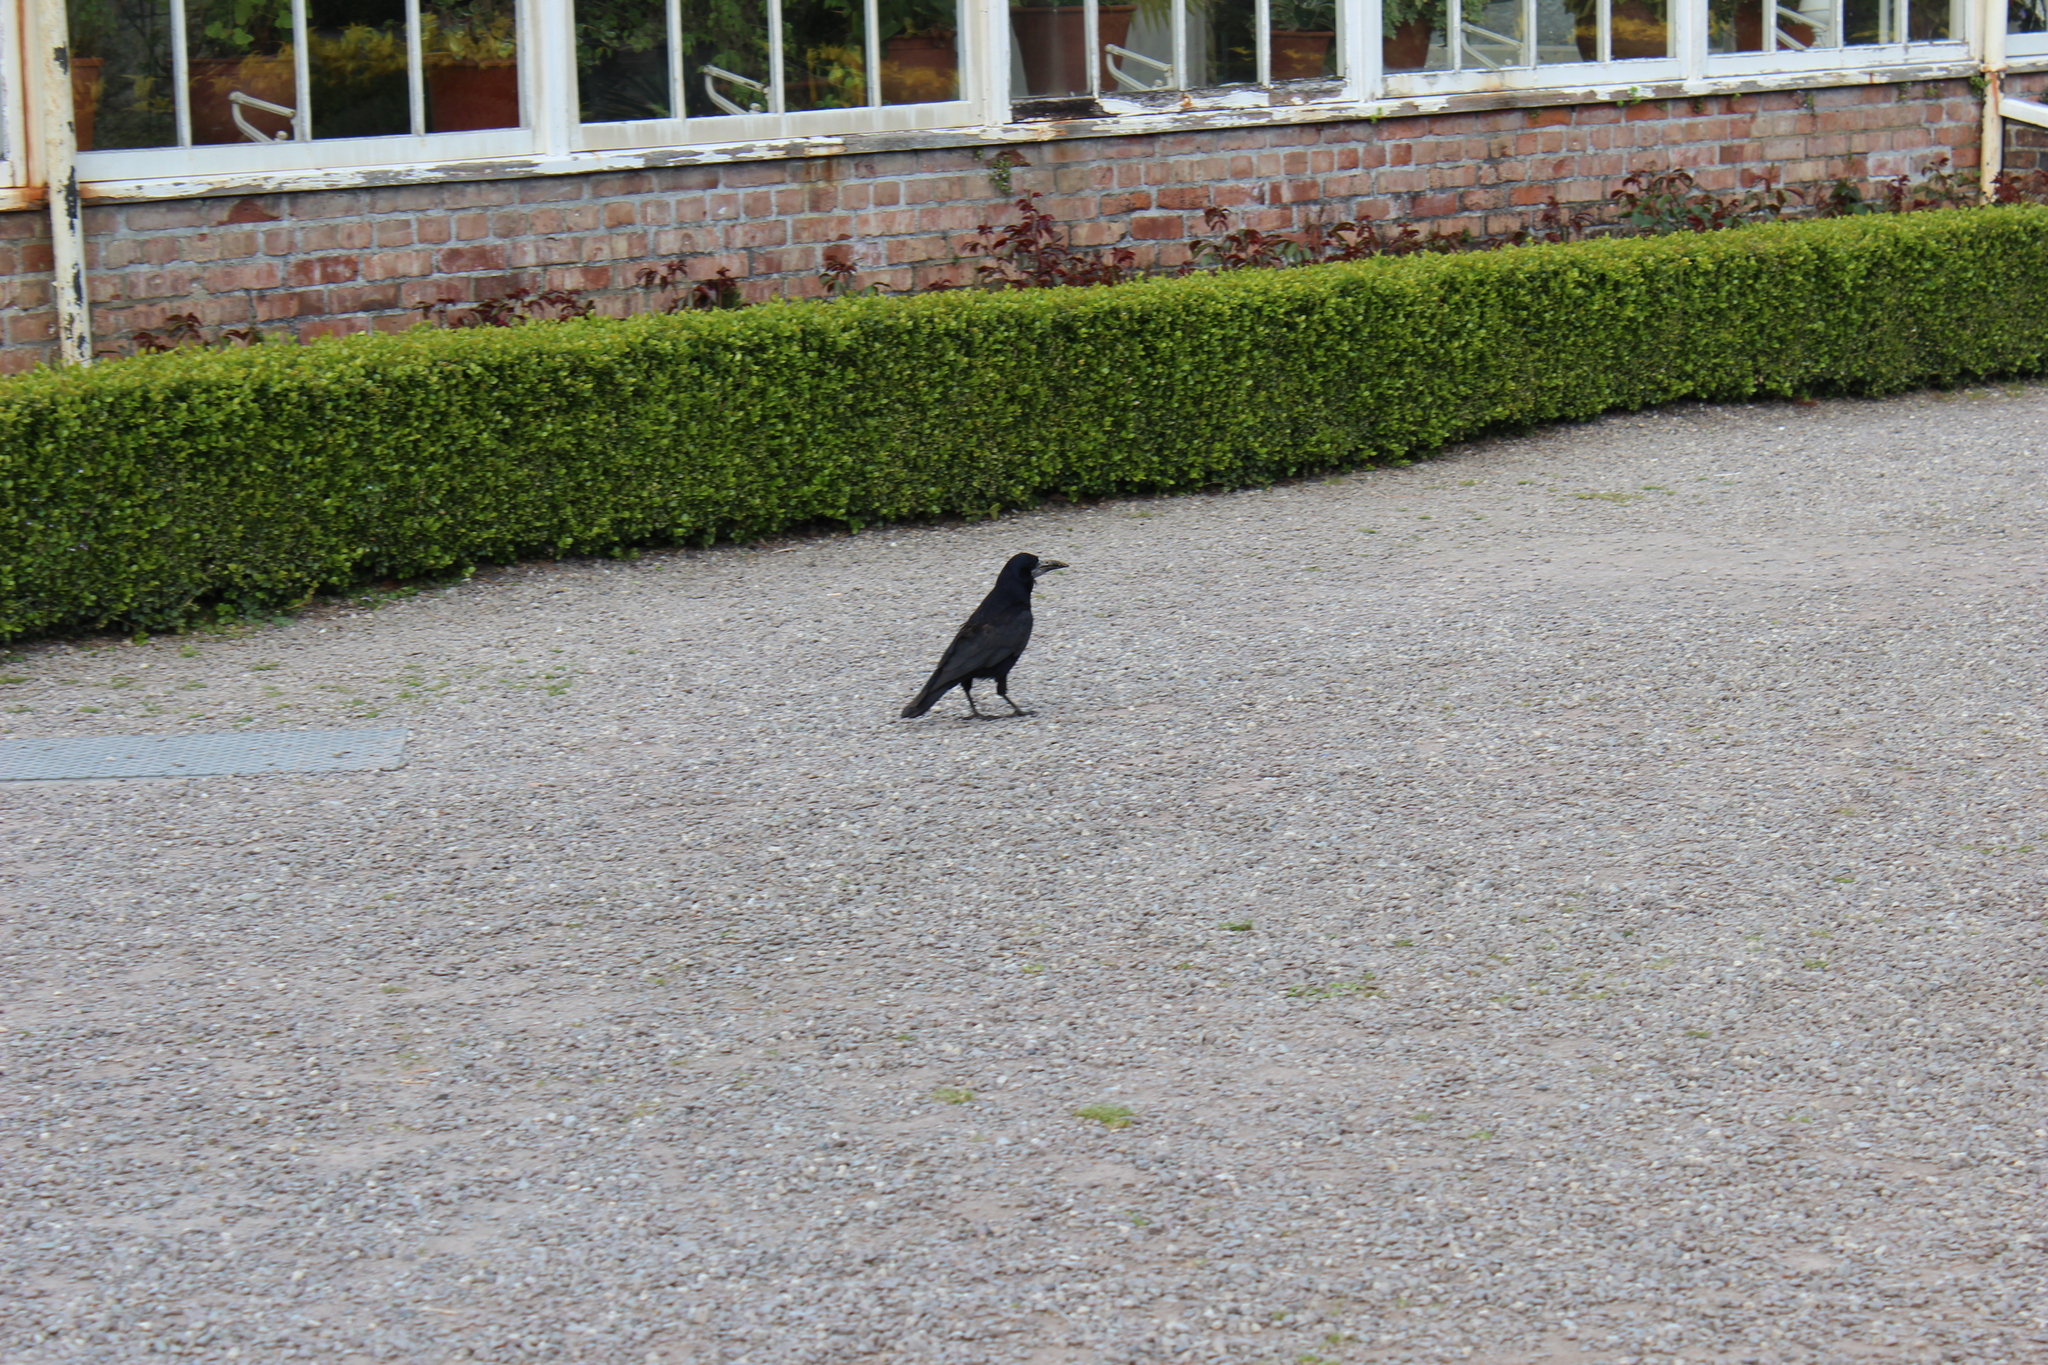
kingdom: Animalia
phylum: Chordata
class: Aves
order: Passeriformes
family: Corvidae
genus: Corvus
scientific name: Corvus frugilegus
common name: Rook
